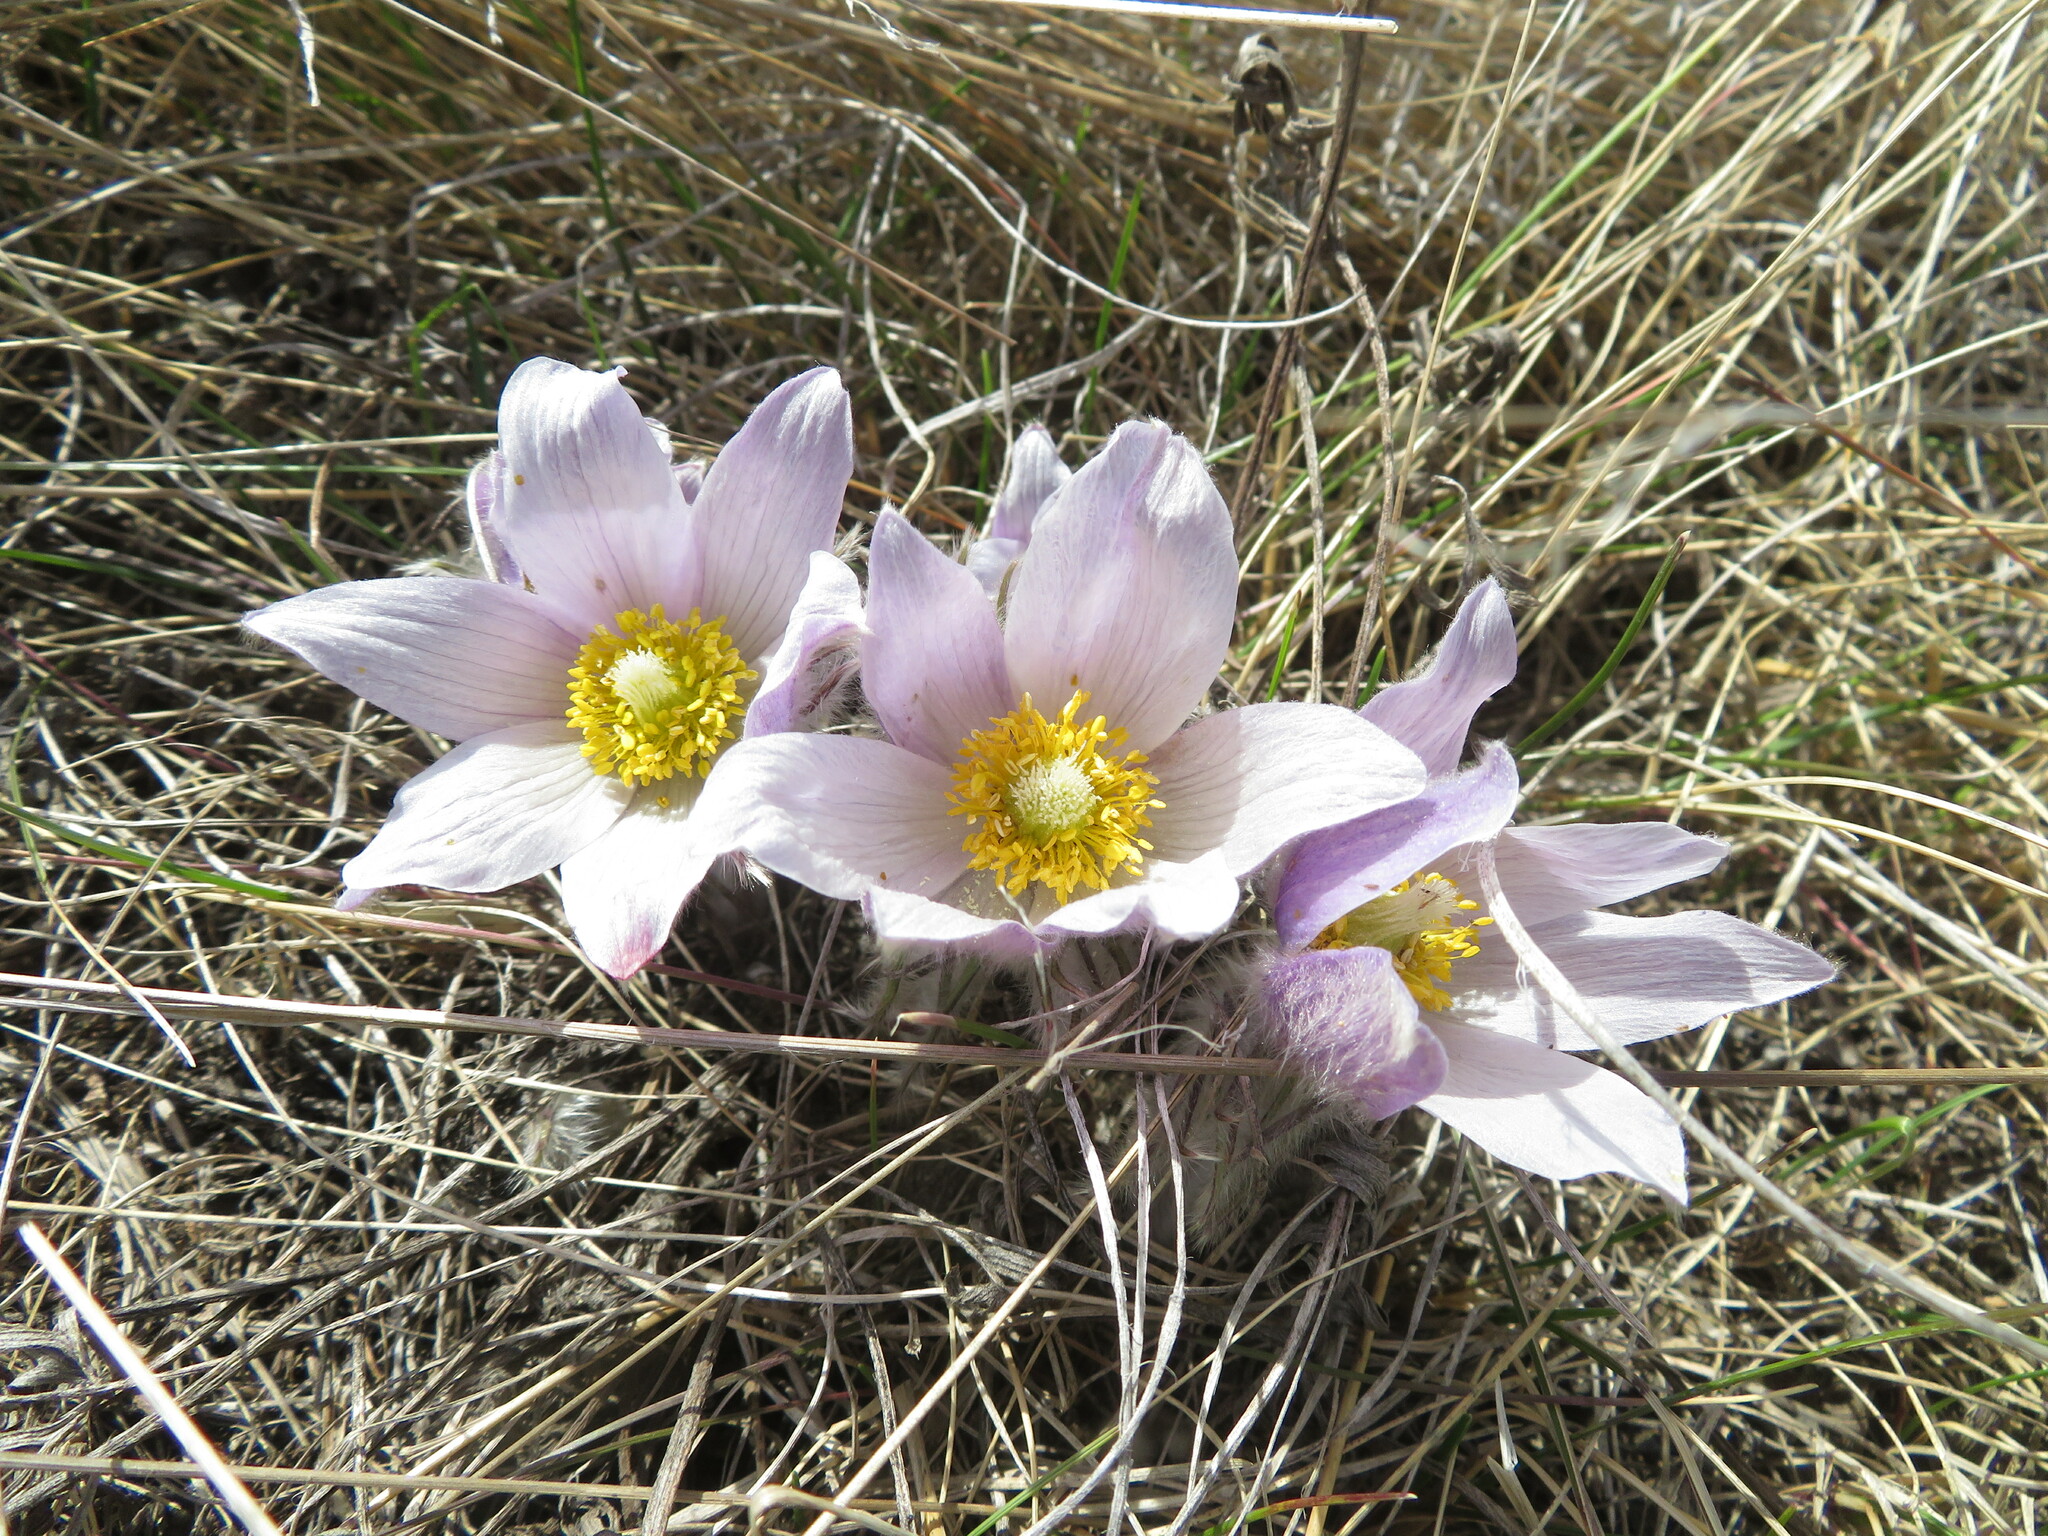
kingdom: Plantae
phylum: Tracheophyta
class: Magnoliopsida
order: Ranunculales
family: Ranunculaceae
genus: Pulsatilla
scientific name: Pulsatilla nuttalliana
